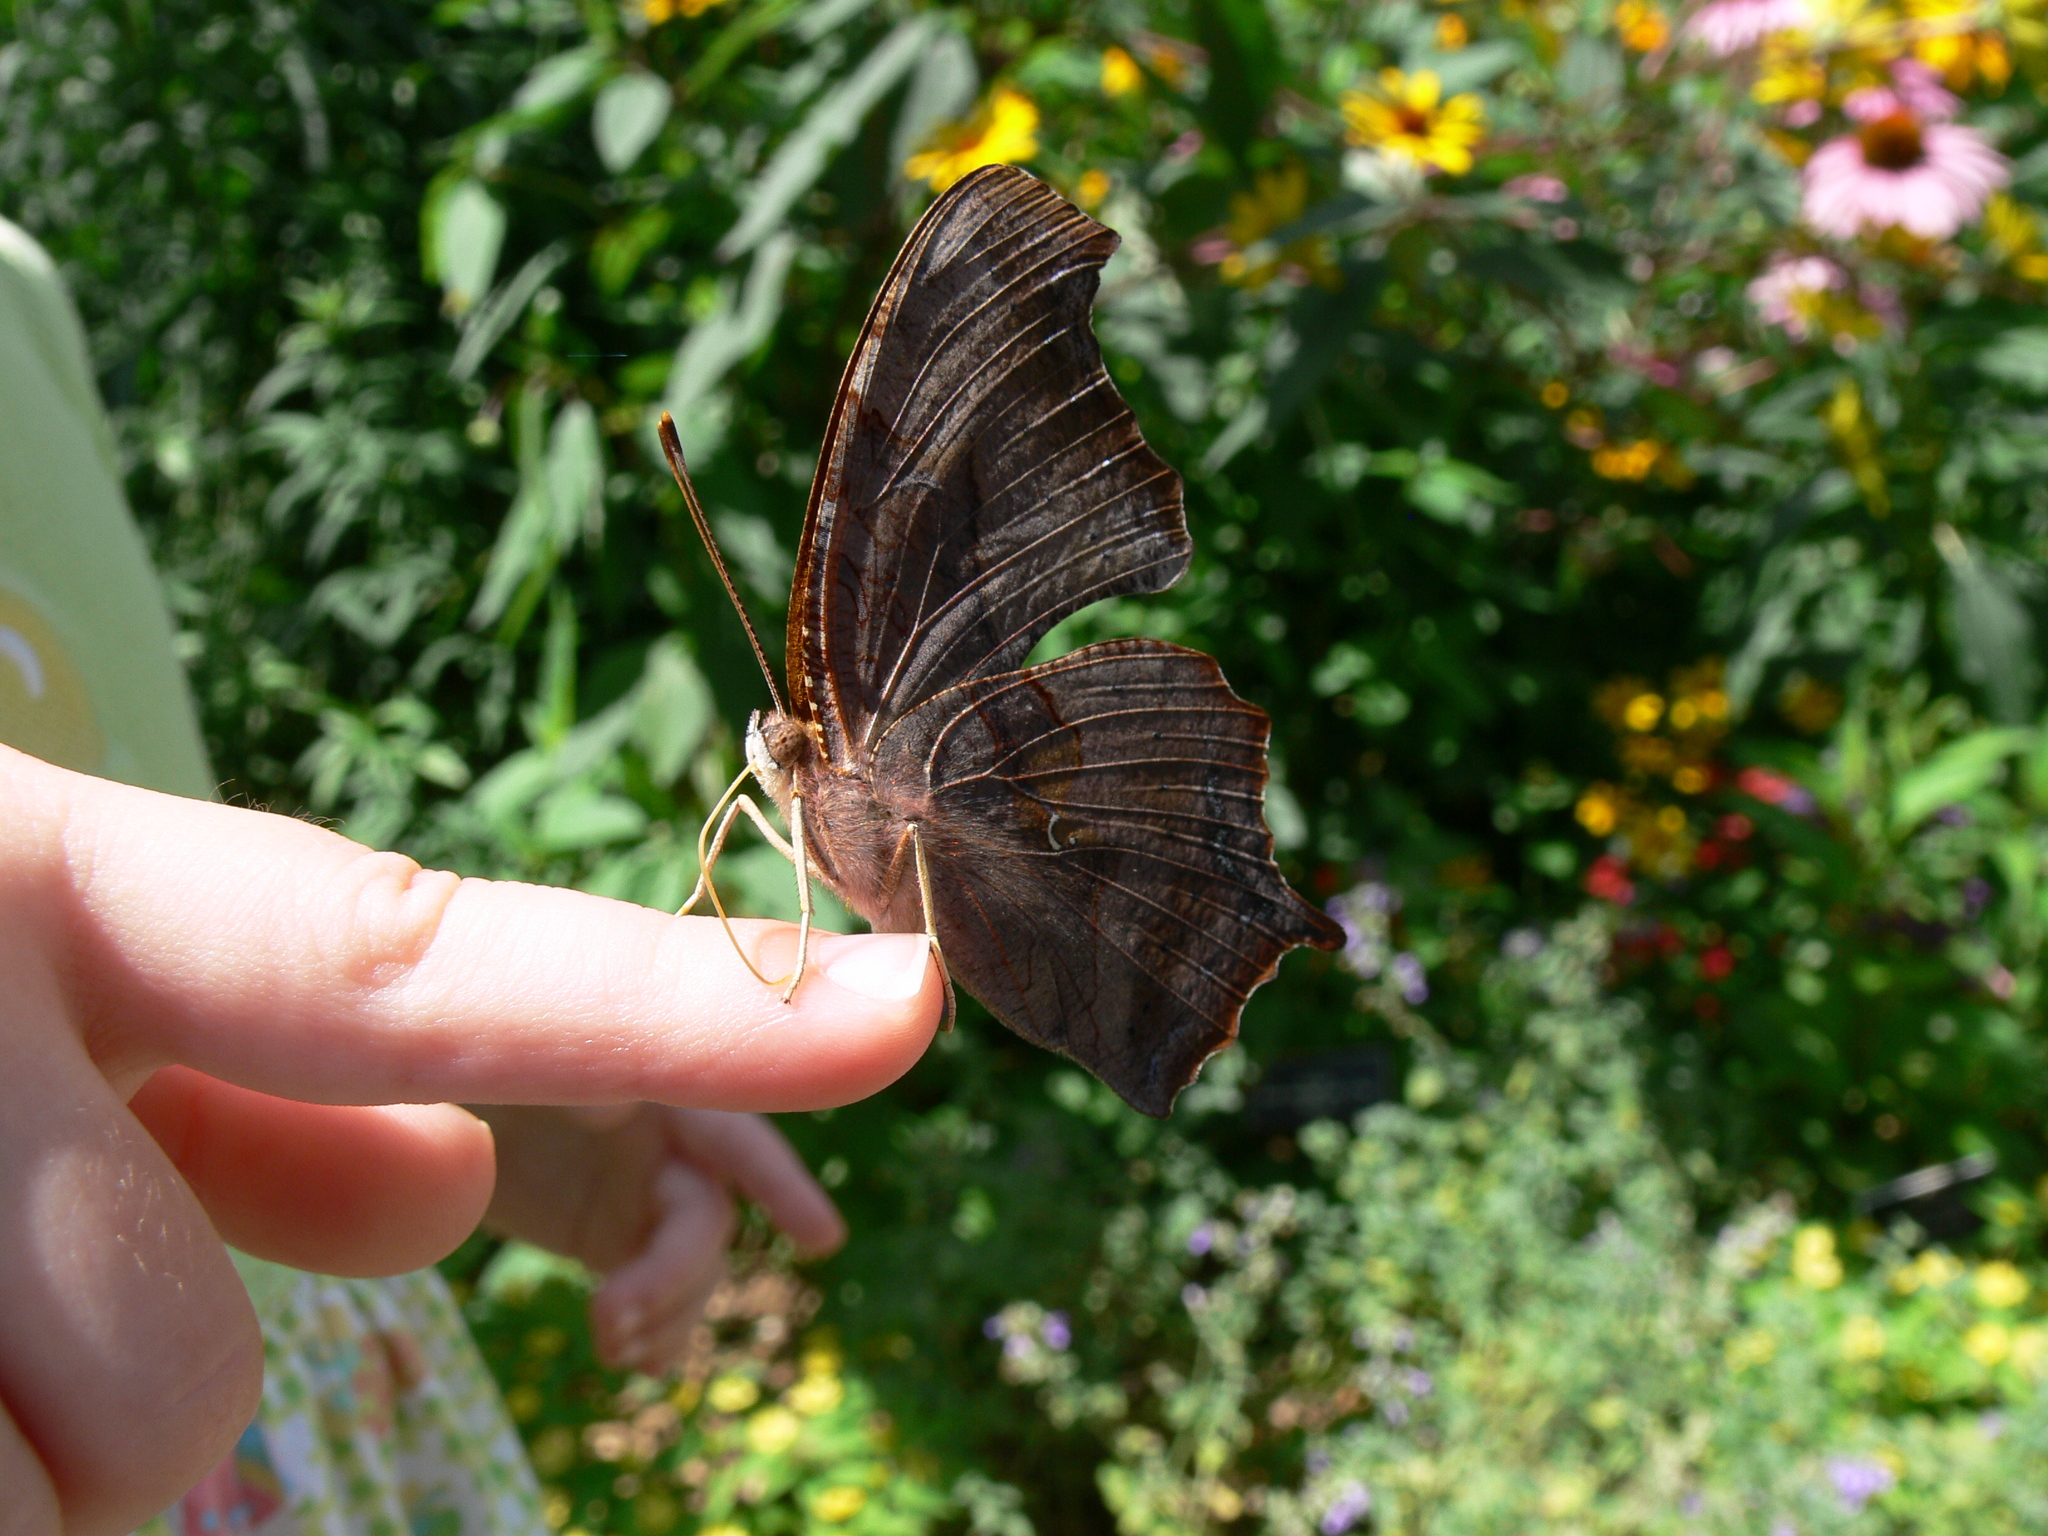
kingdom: Animalia
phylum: Arthropoda
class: Insecta
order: Lepidoptera
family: Nymphalidae
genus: Polygonia
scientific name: Polygonia interrogationis
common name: Question mark
